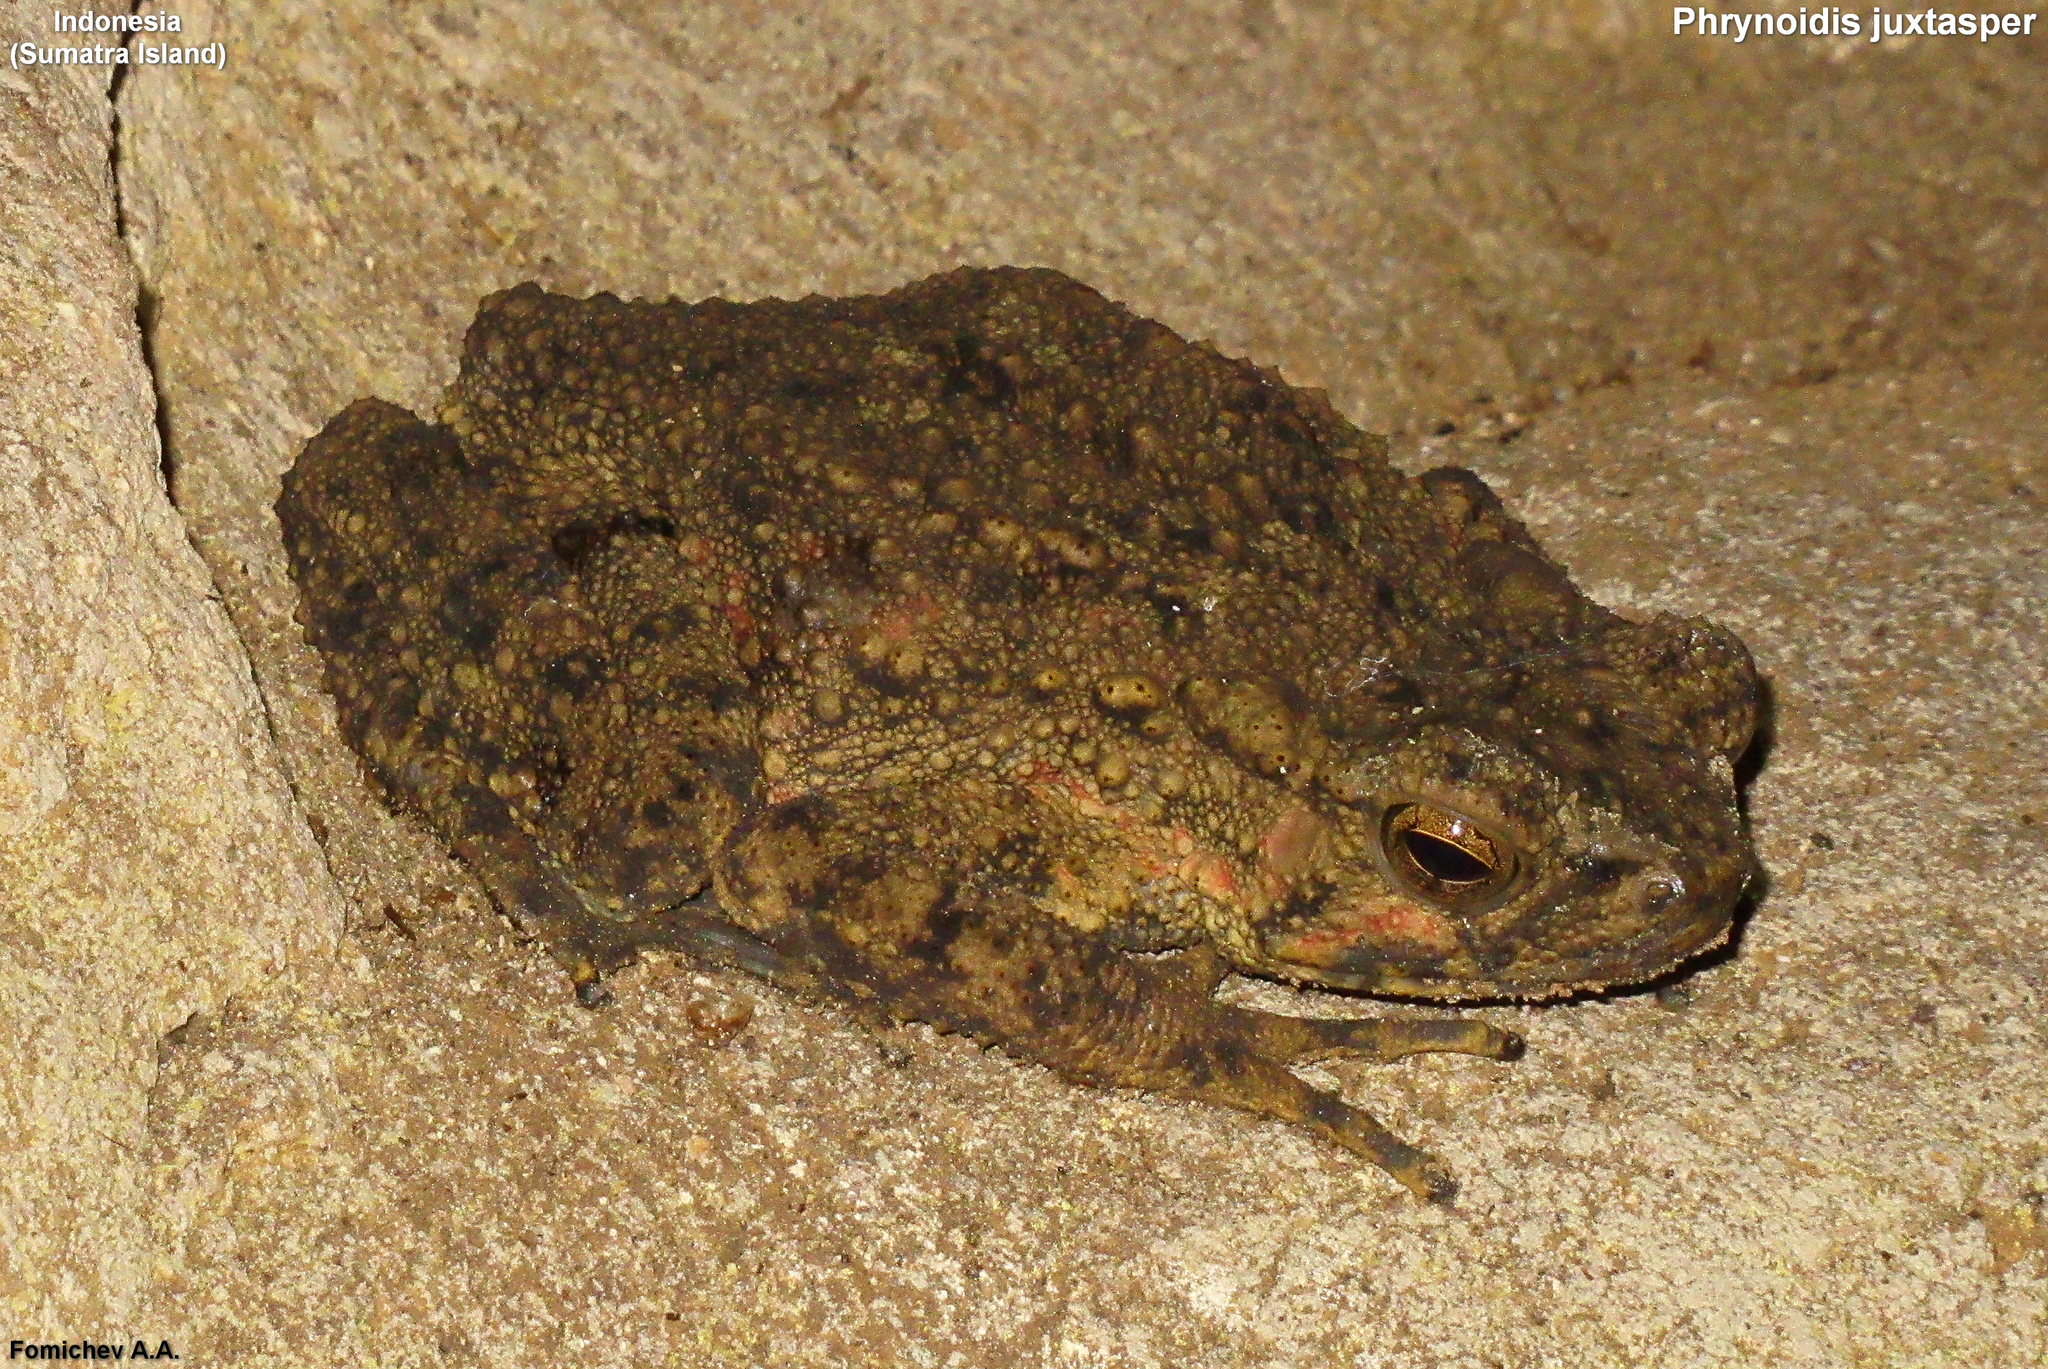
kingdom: Animalia
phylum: Chordata
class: Amphibia
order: Anura
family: Bufonidae
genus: Phrynoidis
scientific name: Phrynoidis juxtasper
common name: Giant river toad
